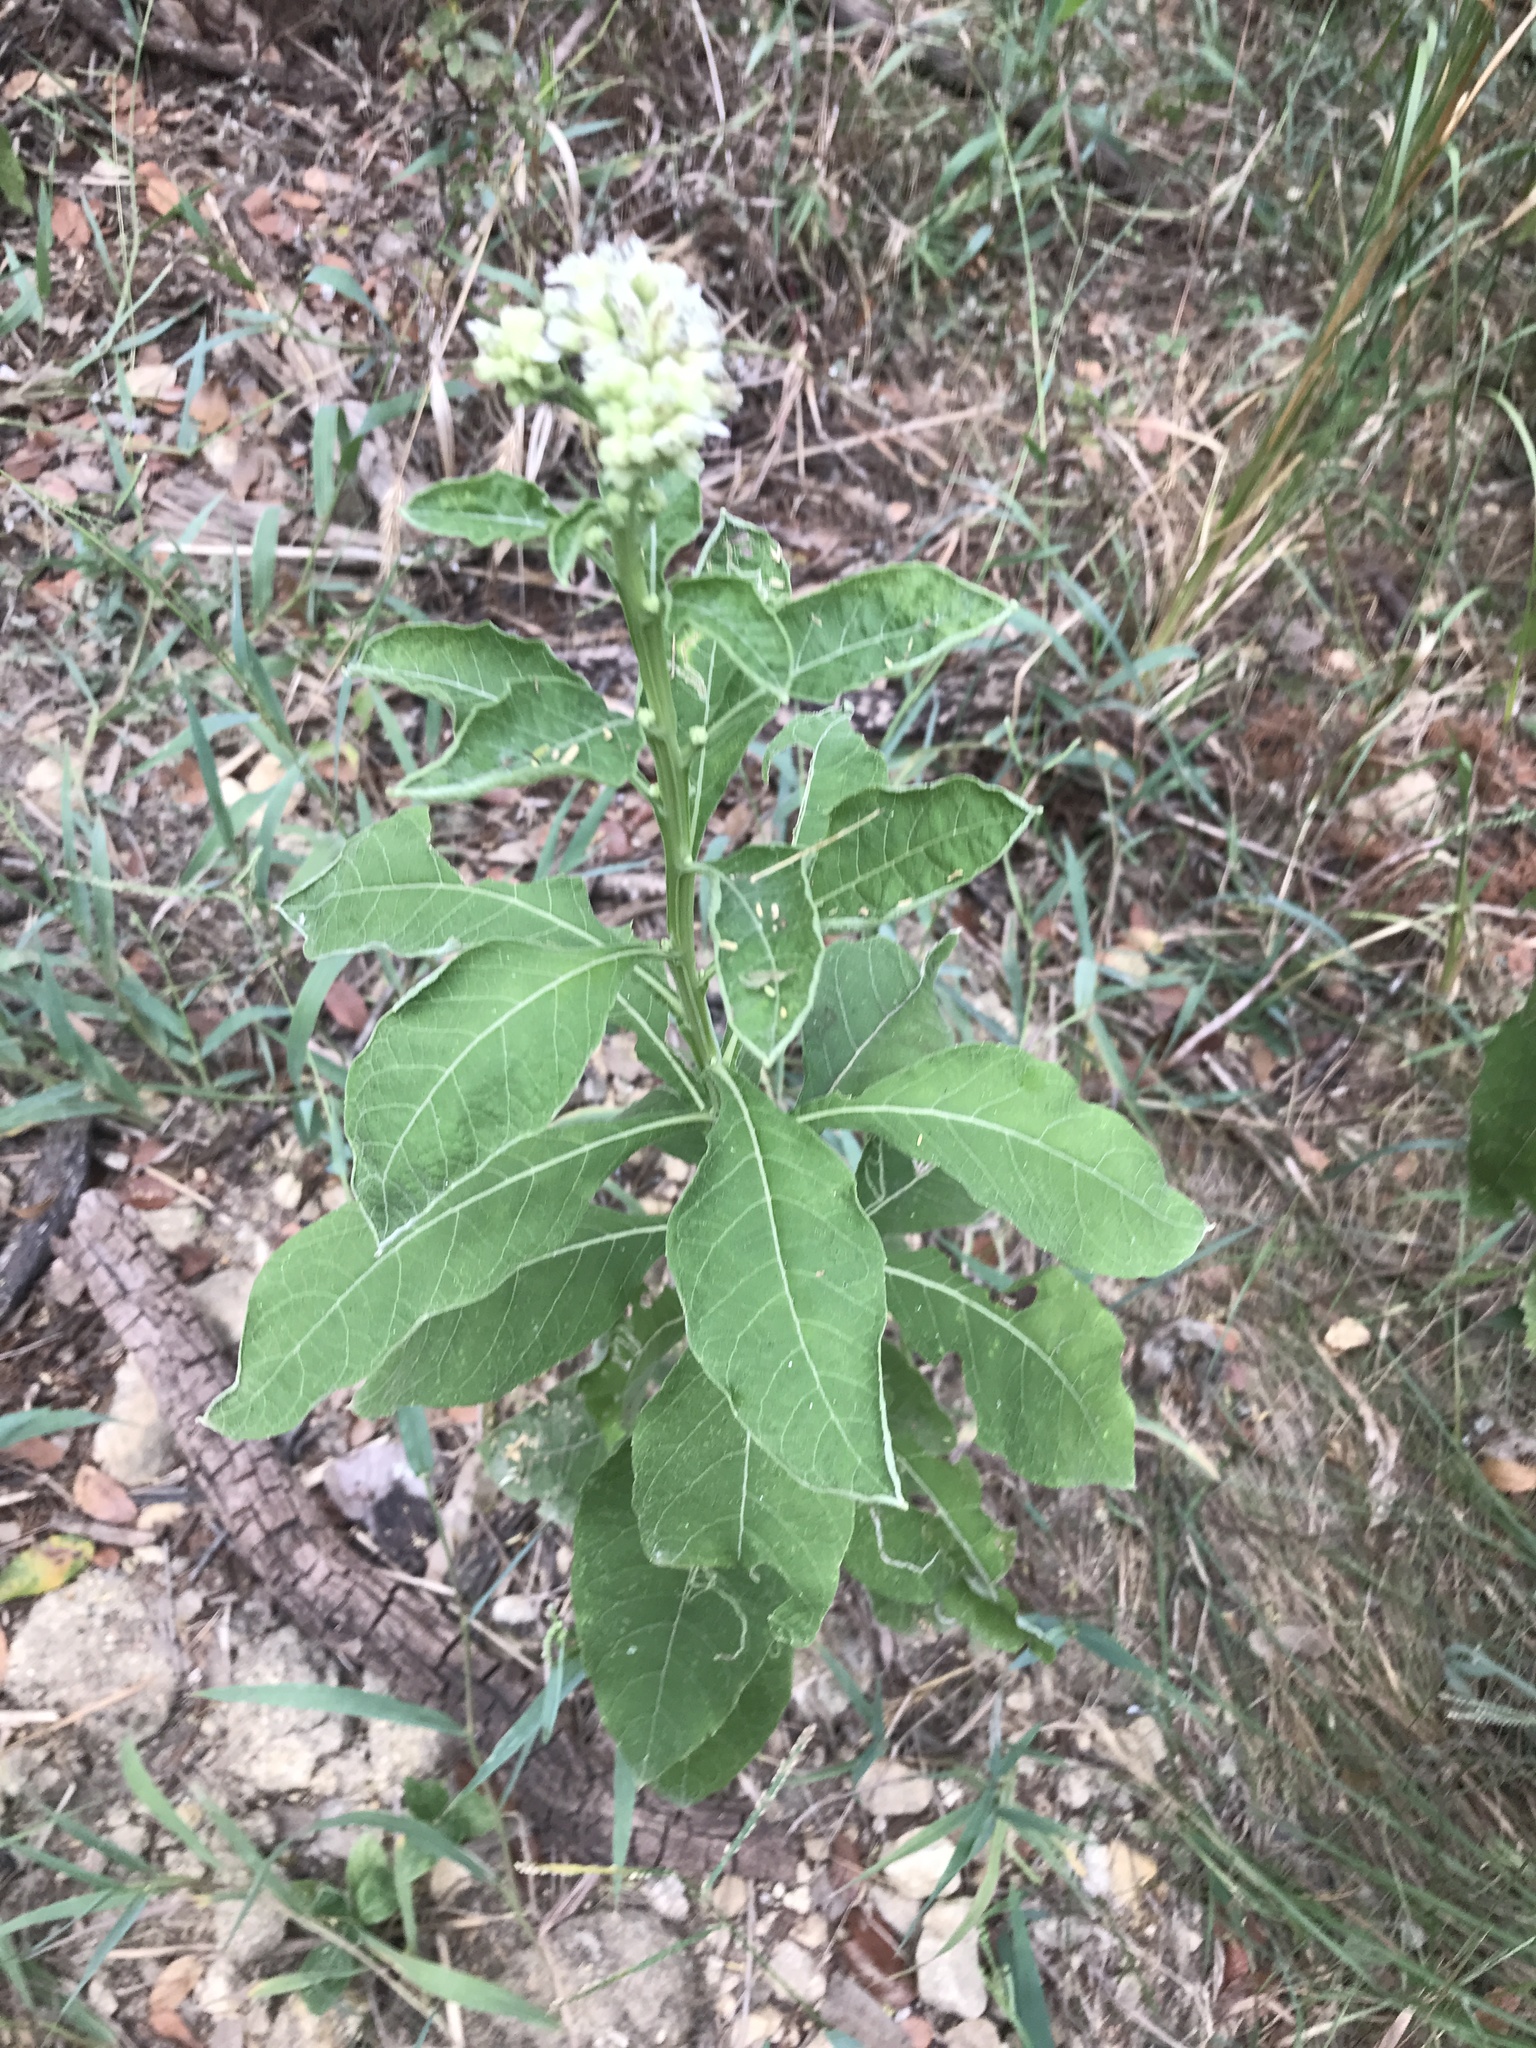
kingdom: Plantae
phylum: Tracheophyta
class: Magnoliopsida
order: Asterales
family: Asteraceae
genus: Verbesina
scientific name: Verbesina virginica
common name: Frostweed
